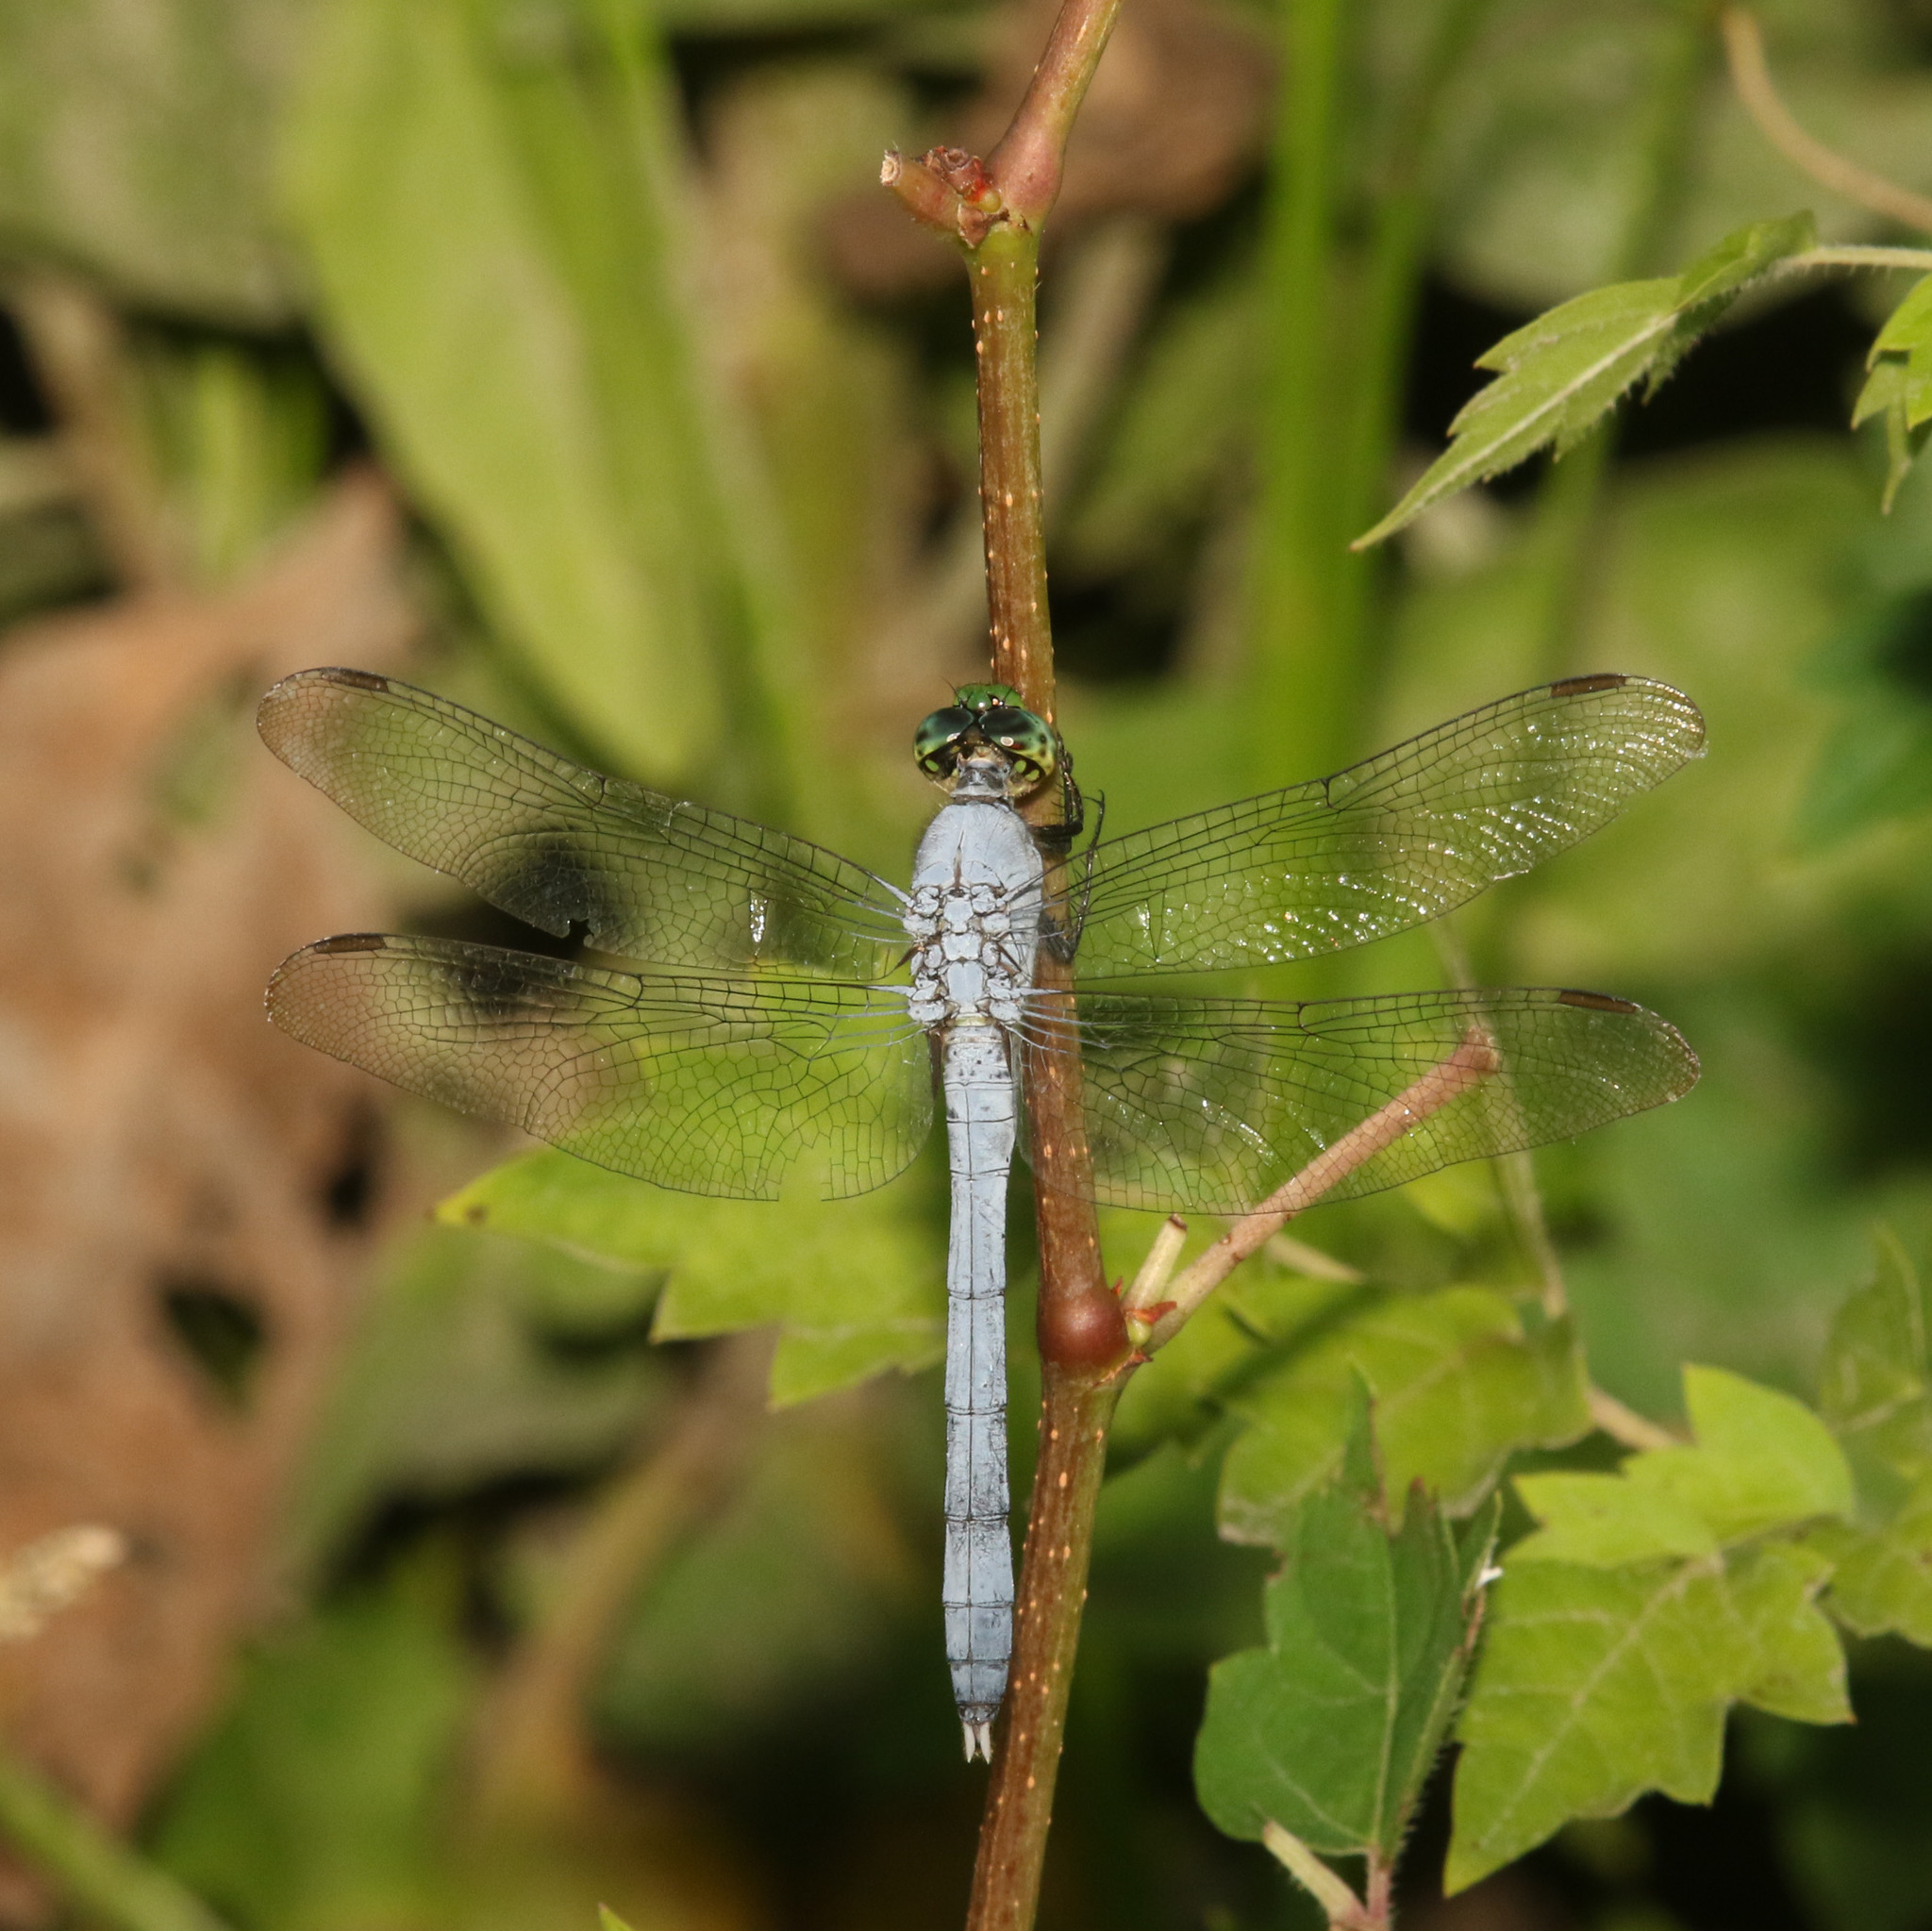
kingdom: Animalia
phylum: Arthropoda
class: Insecta
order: Odonata
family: Libellulidae
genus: Erythemis
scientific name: Erythemis simplicicollis
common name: Eastern pondhawk
